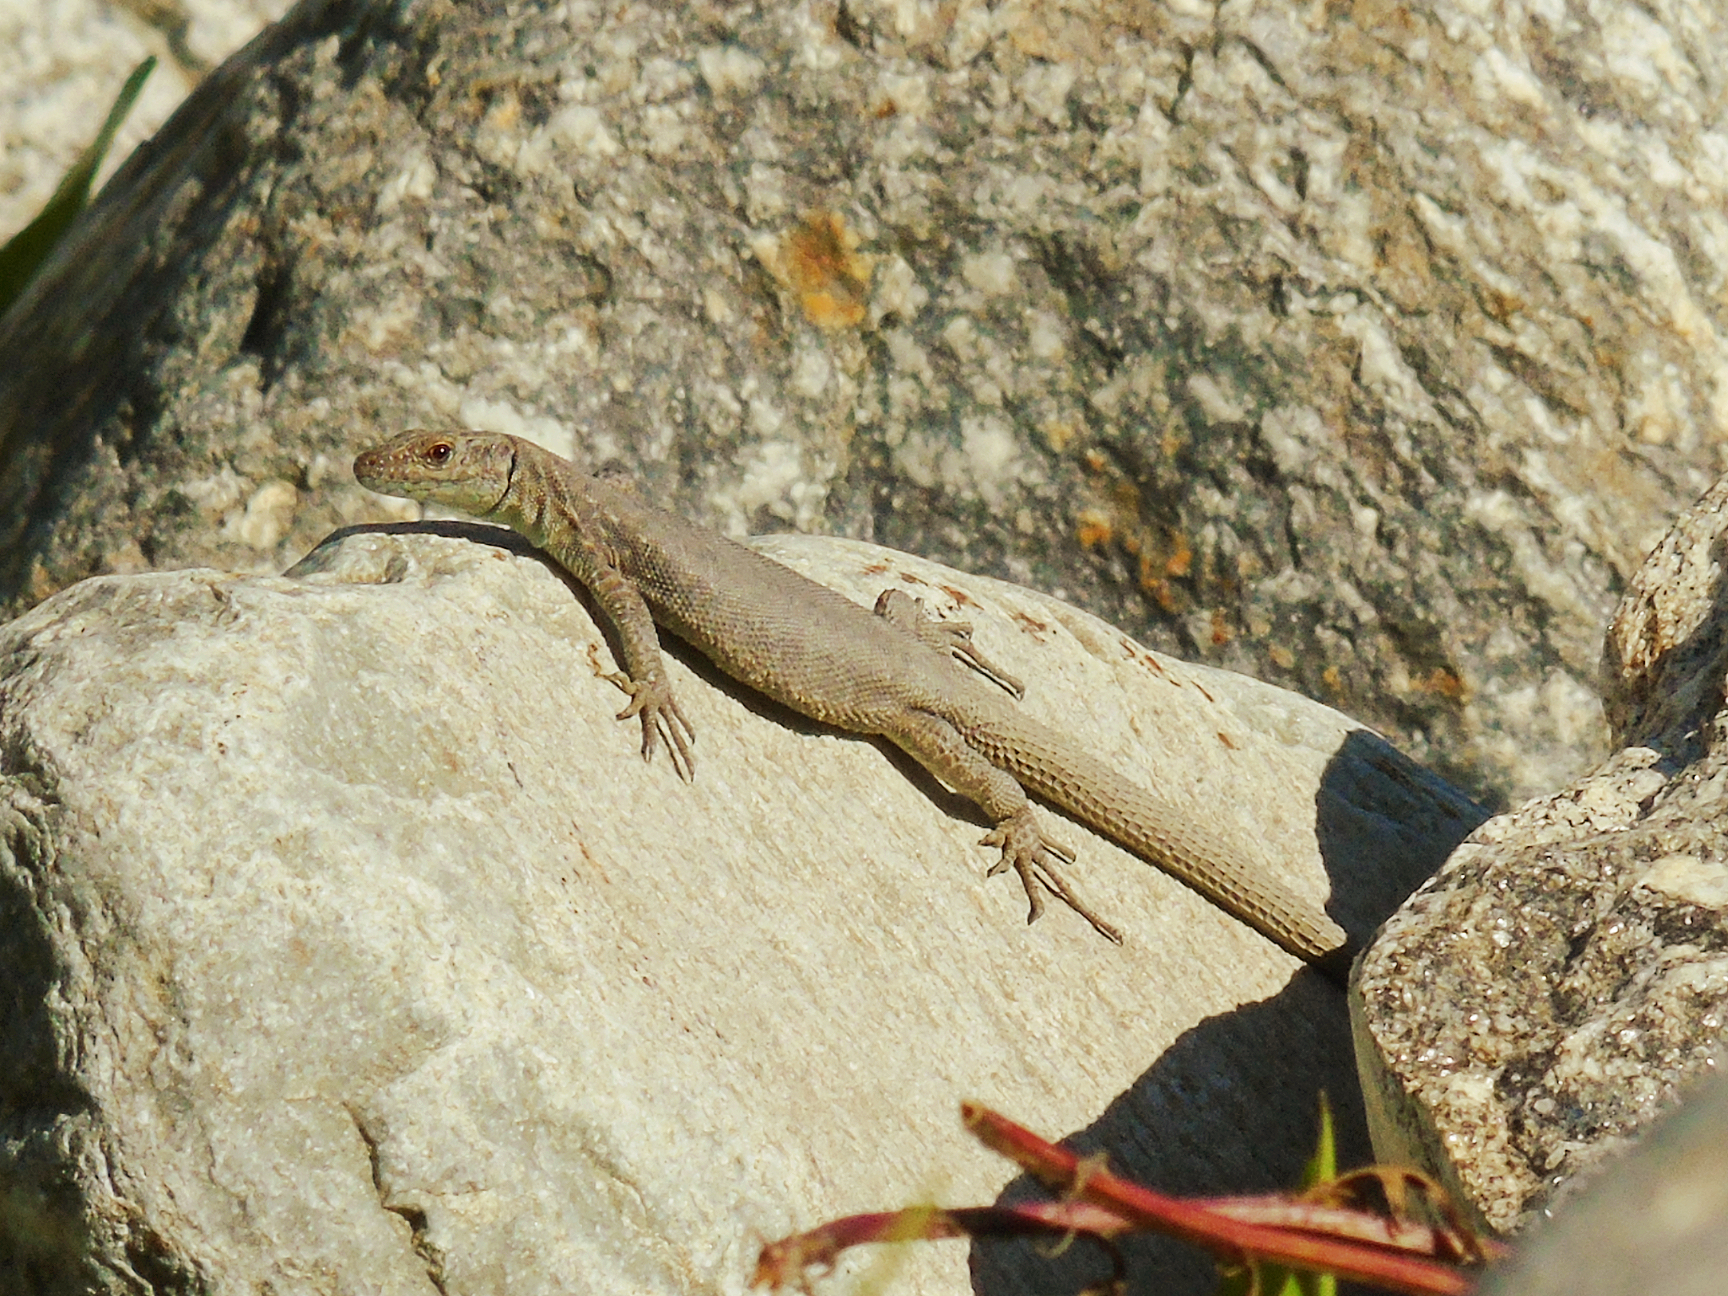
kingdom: Animalia
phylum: Chordata
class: Squamata
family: Lacertidae
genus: Darevskia
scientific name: Darevskia rudis
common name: Spiny-tailed lizard
